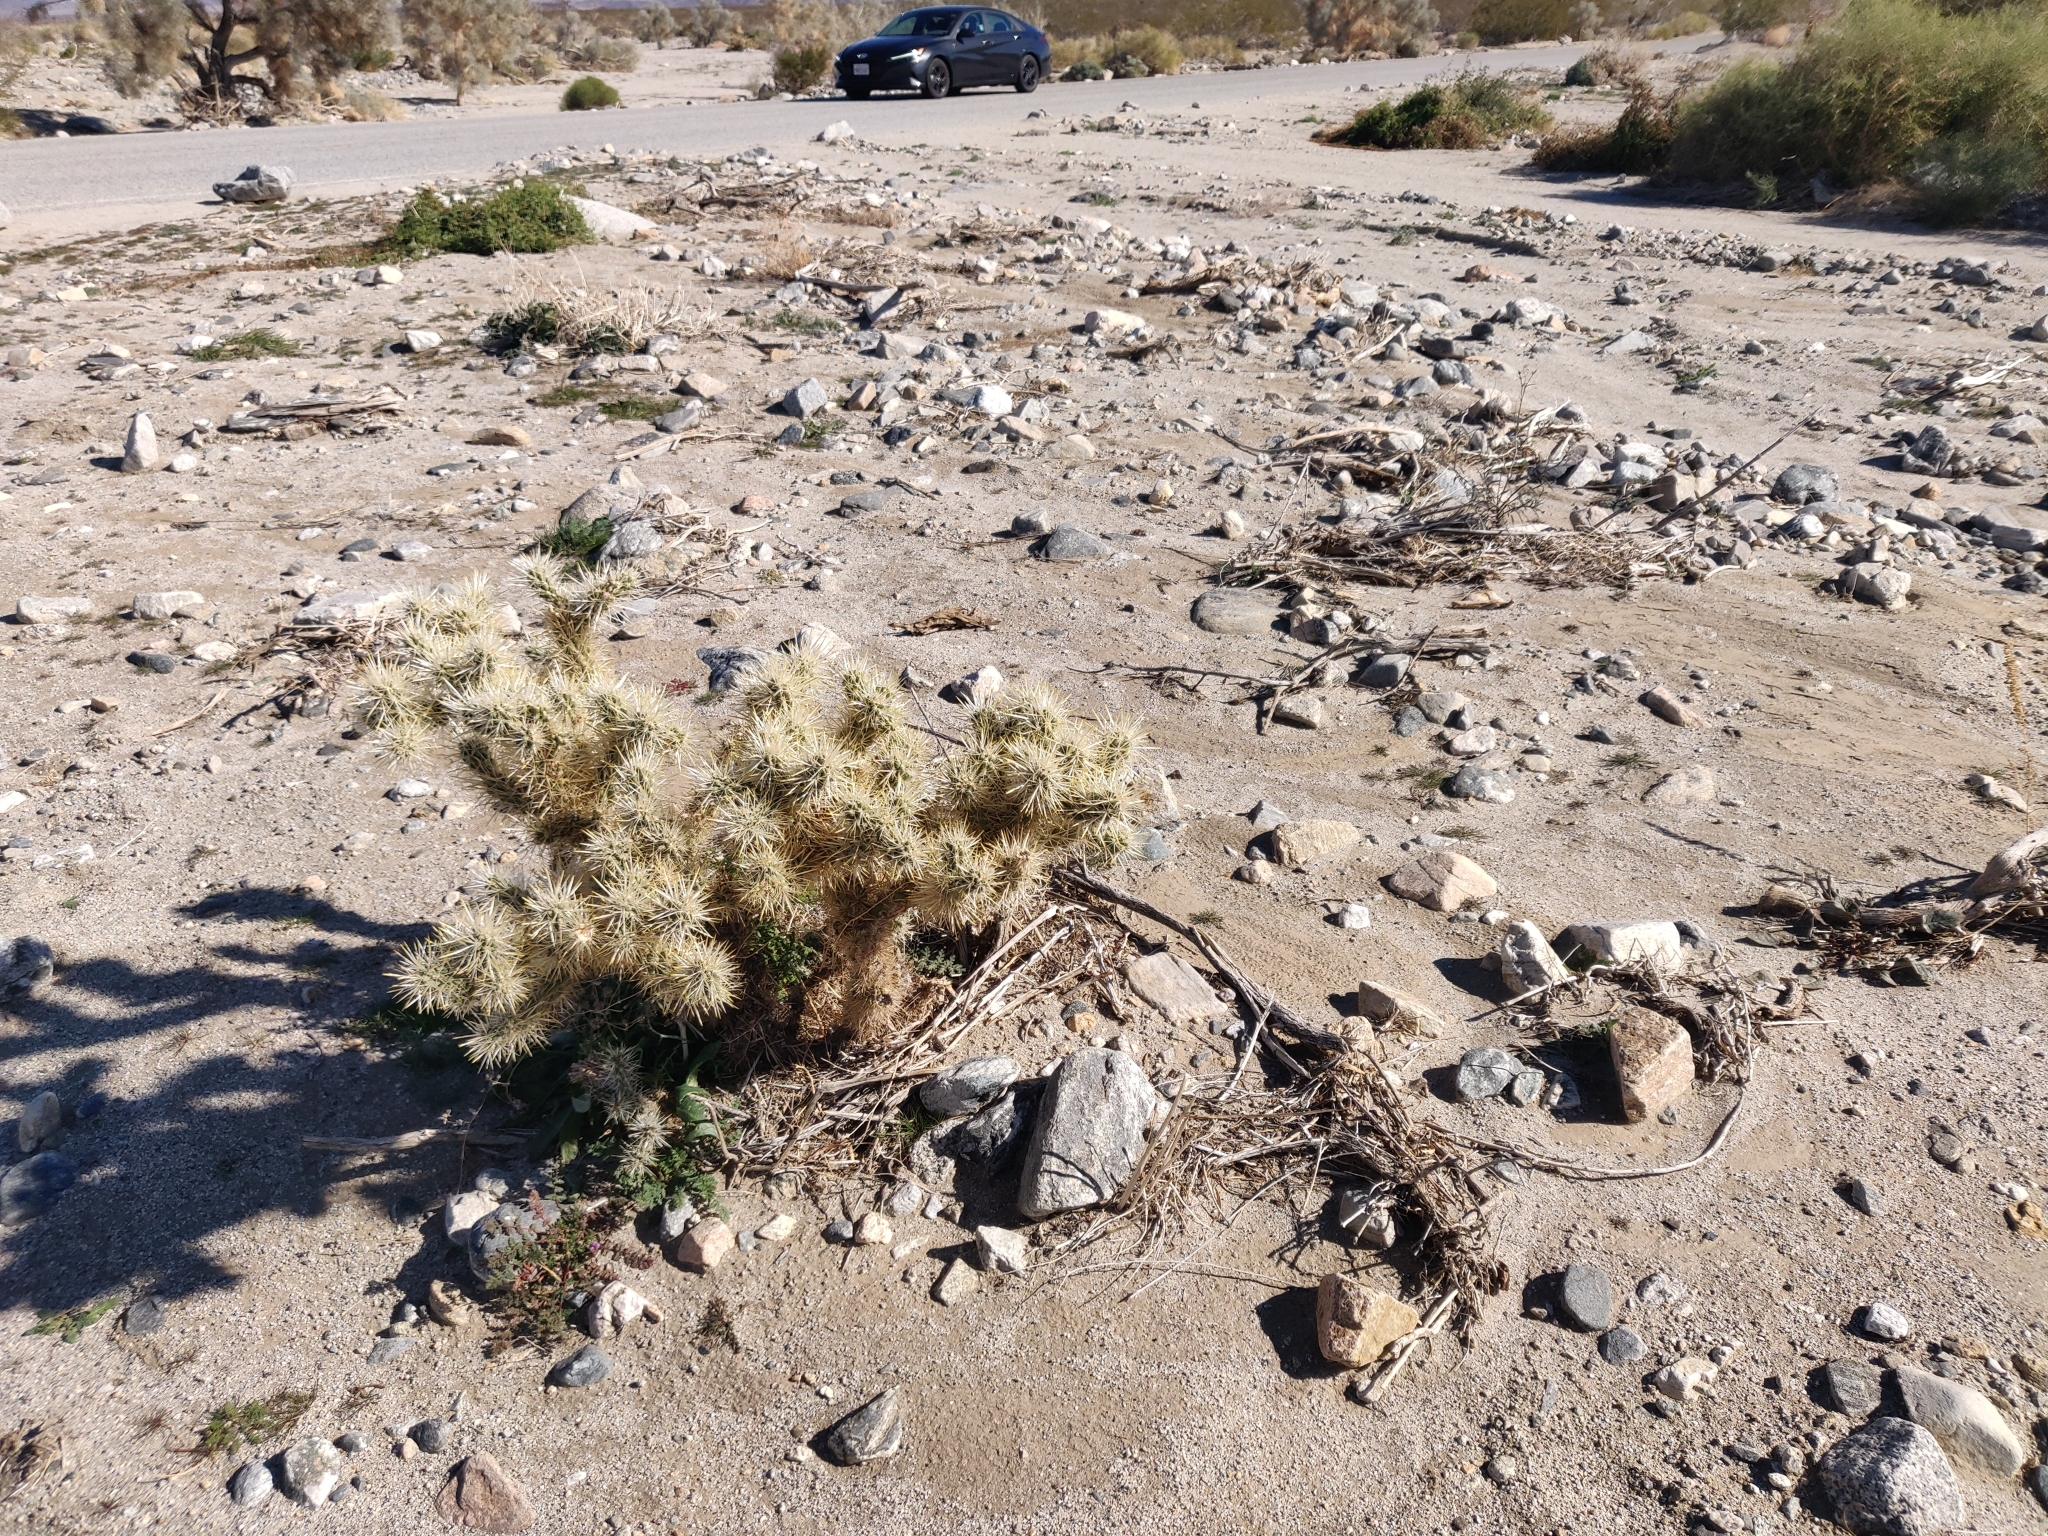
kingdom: Plantae
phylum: Tracheophyta
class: Magnoliopsida
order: Caryophyllales
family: Cactaceae
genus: Cylindropuntia
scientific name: Cylindropuntia echinocarpa
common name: Ground cholla
